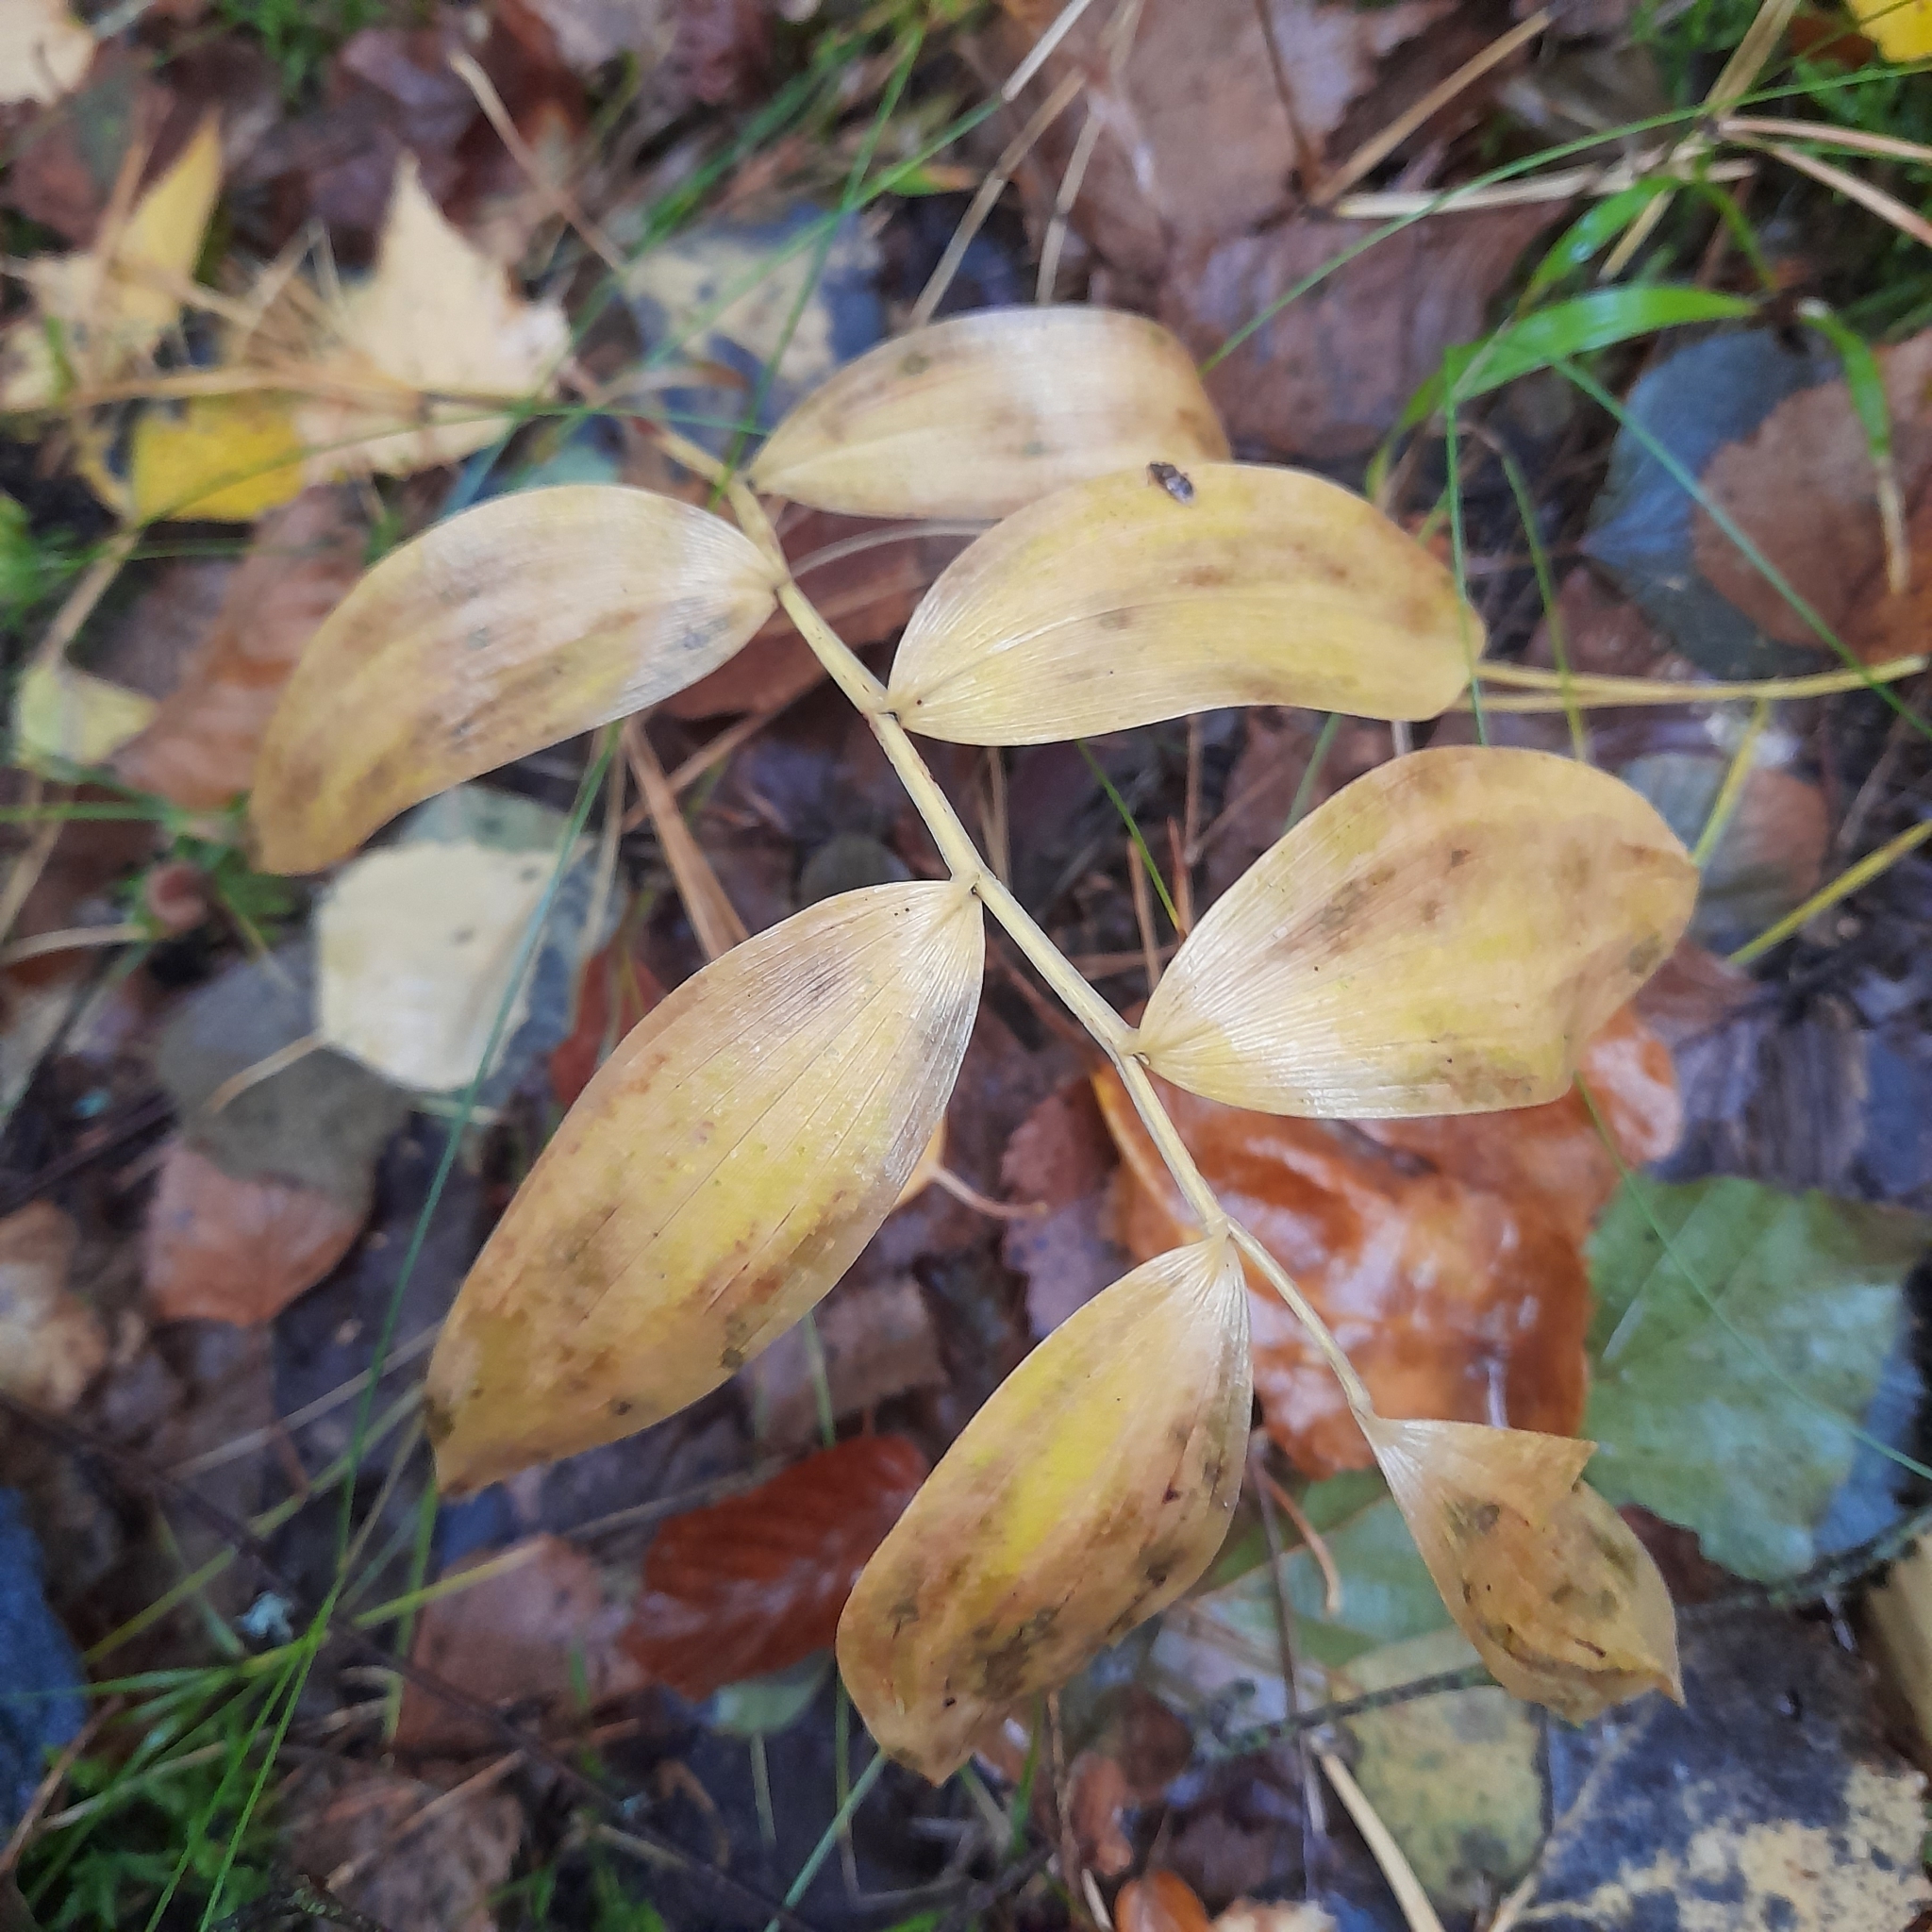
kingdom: Plantae
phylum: Tracheophyta
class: Liliopsida
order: Asparagales
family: Asparagaceae
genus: Polygonatum
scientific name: Polygonatum multiflorum
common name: Solomon's-seal
